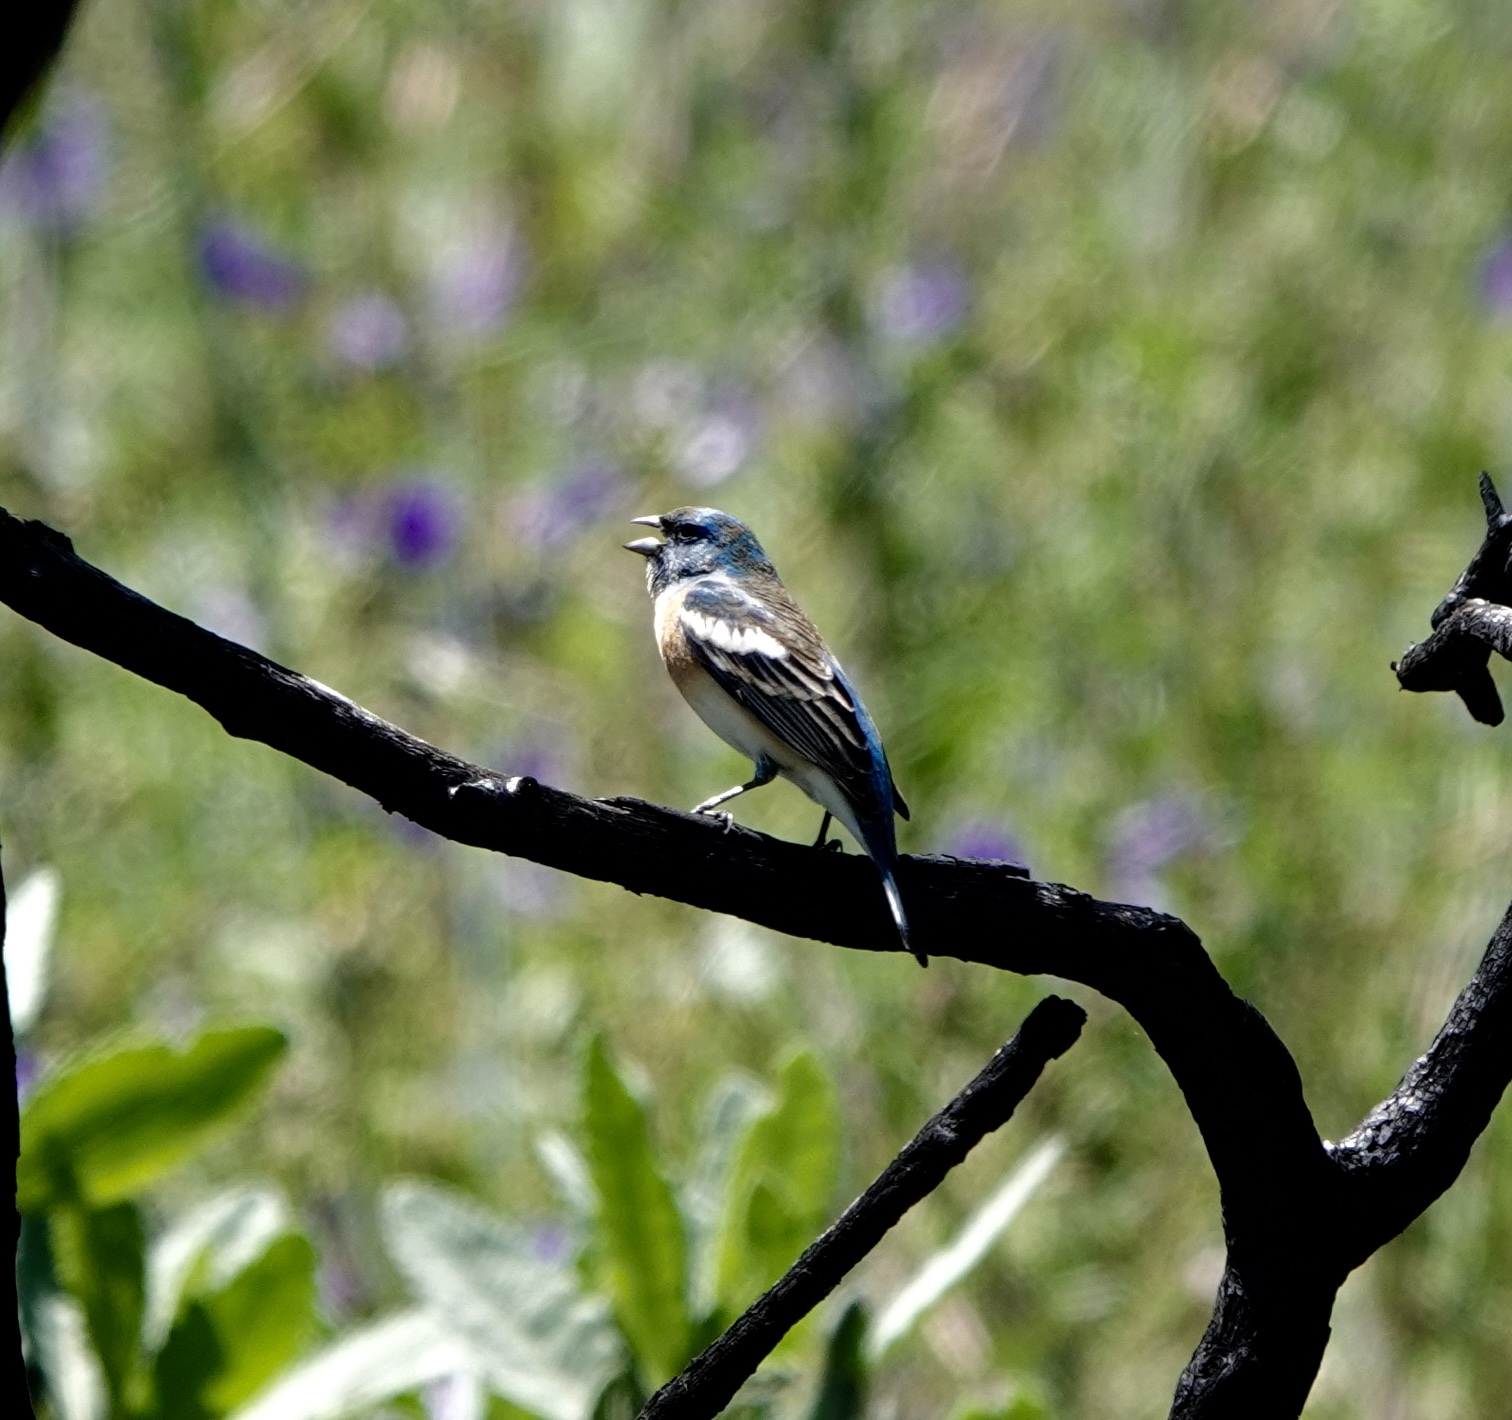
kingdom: Animalia
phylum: Chordata
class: Aves
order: Passeriformes
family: Cardinalidae
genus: Passerina
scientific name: Passerina amoena
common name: Lazuli bunting
